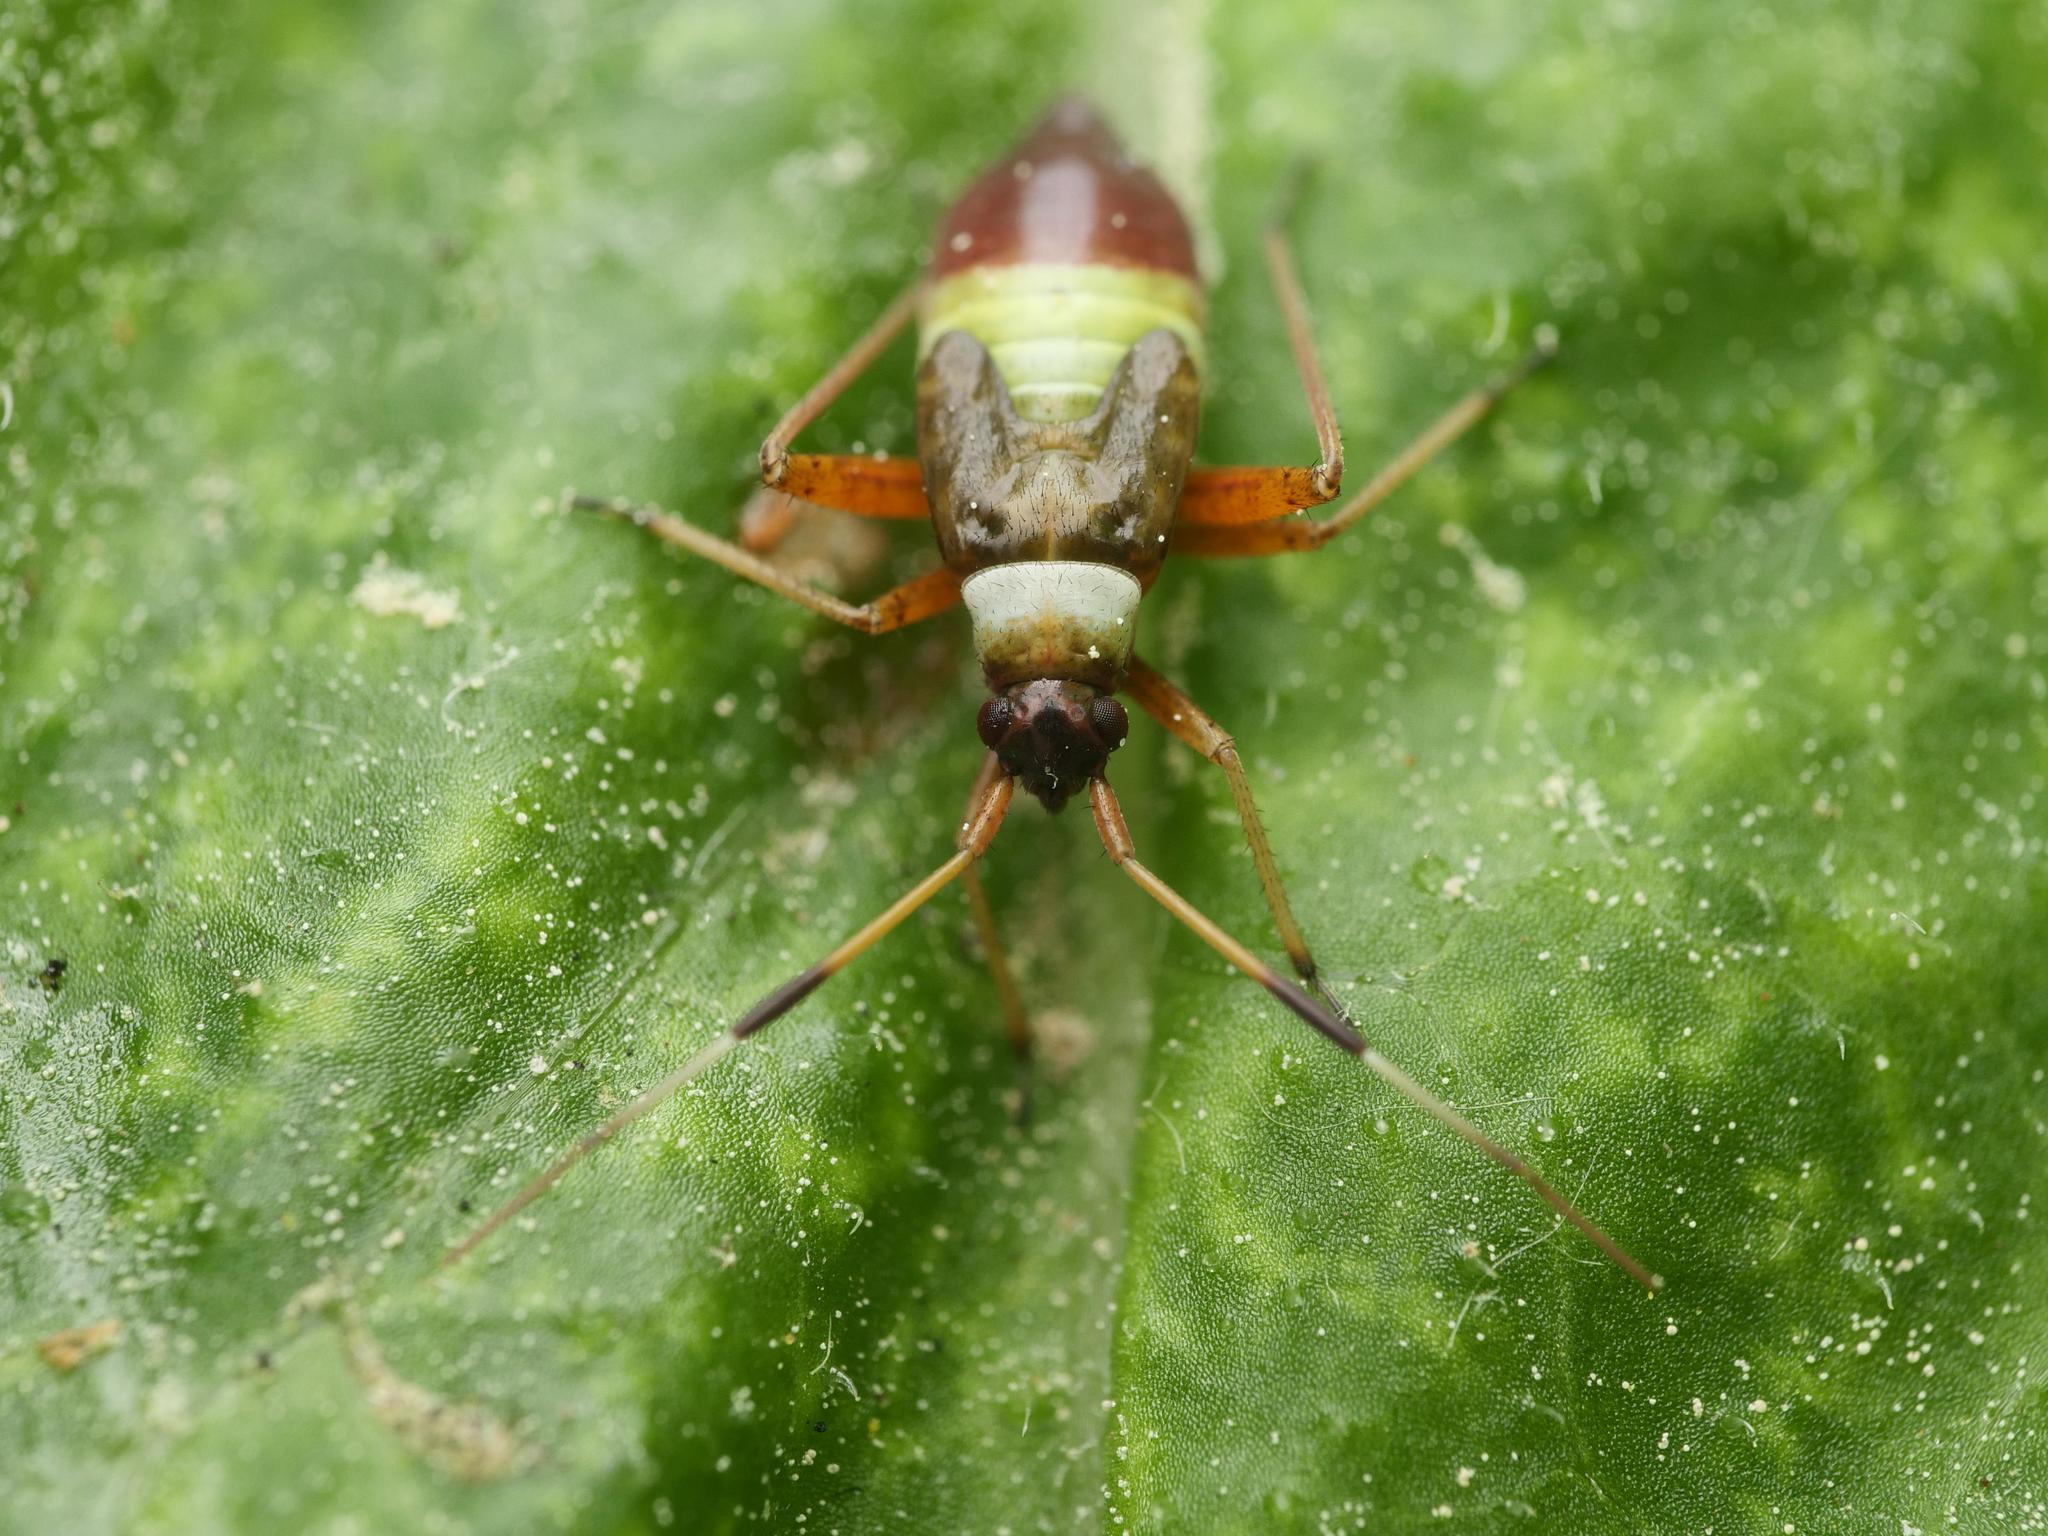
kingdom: Animalia
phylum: Arthropoda
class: Insecta
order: Hemiptera
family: Miridae
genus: Closterotomus
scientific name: Closterotomus biclavatus
